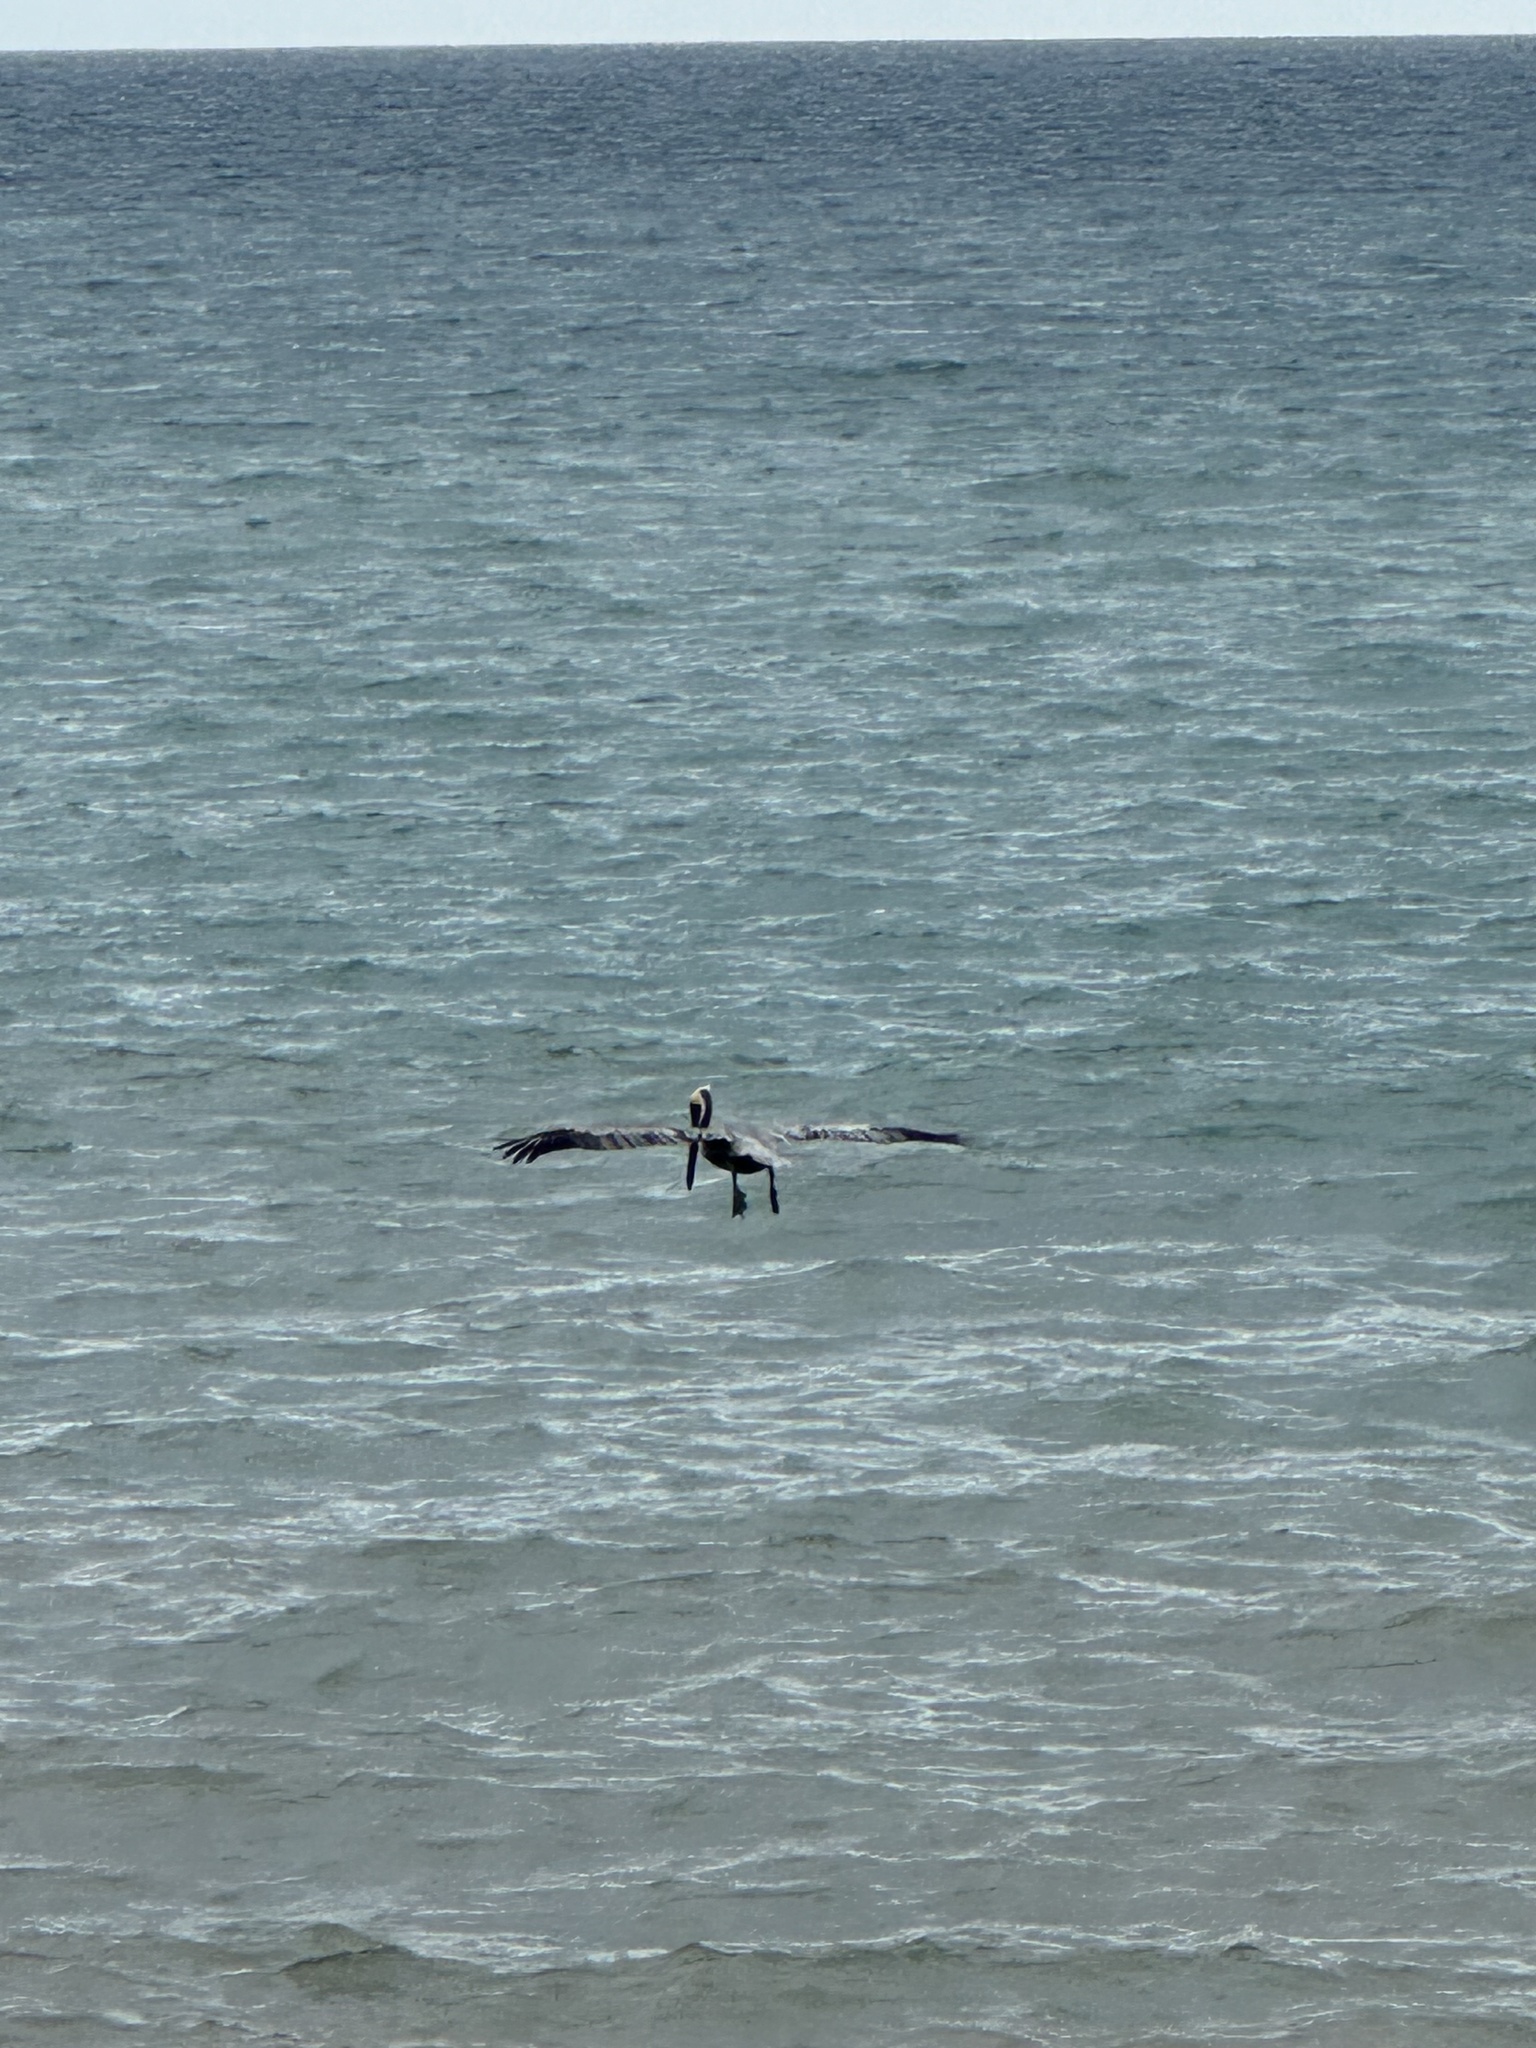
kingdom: Animalia
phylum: Chordata
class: Aves
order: Pelecaniformes
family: Pelecanidae
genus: Pelecanus
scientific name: Pelecanus occidentalis
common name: Brown pelican
